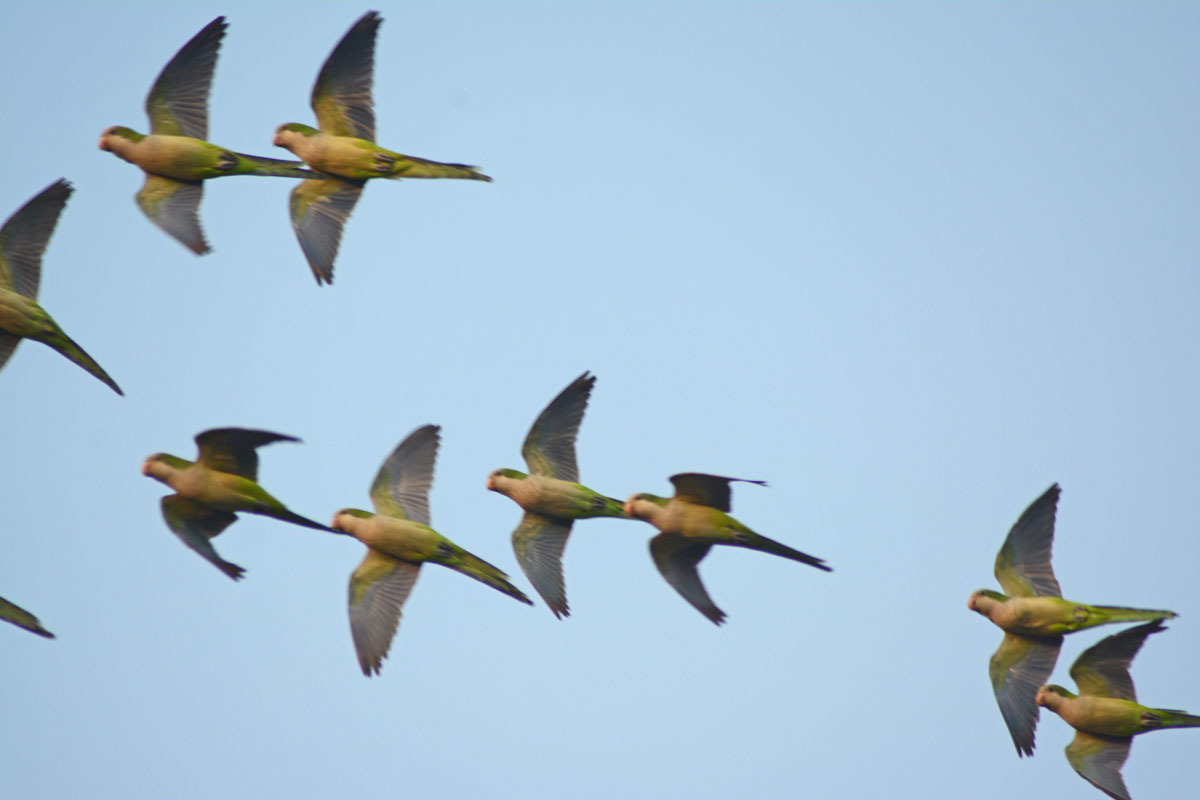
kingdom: Animalia
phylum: Chordata
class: Aves
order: Psittaciformes
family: Psittacidae
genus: Myiopsitta
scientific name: Myiopsitta monachus
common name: Monk parakeet
